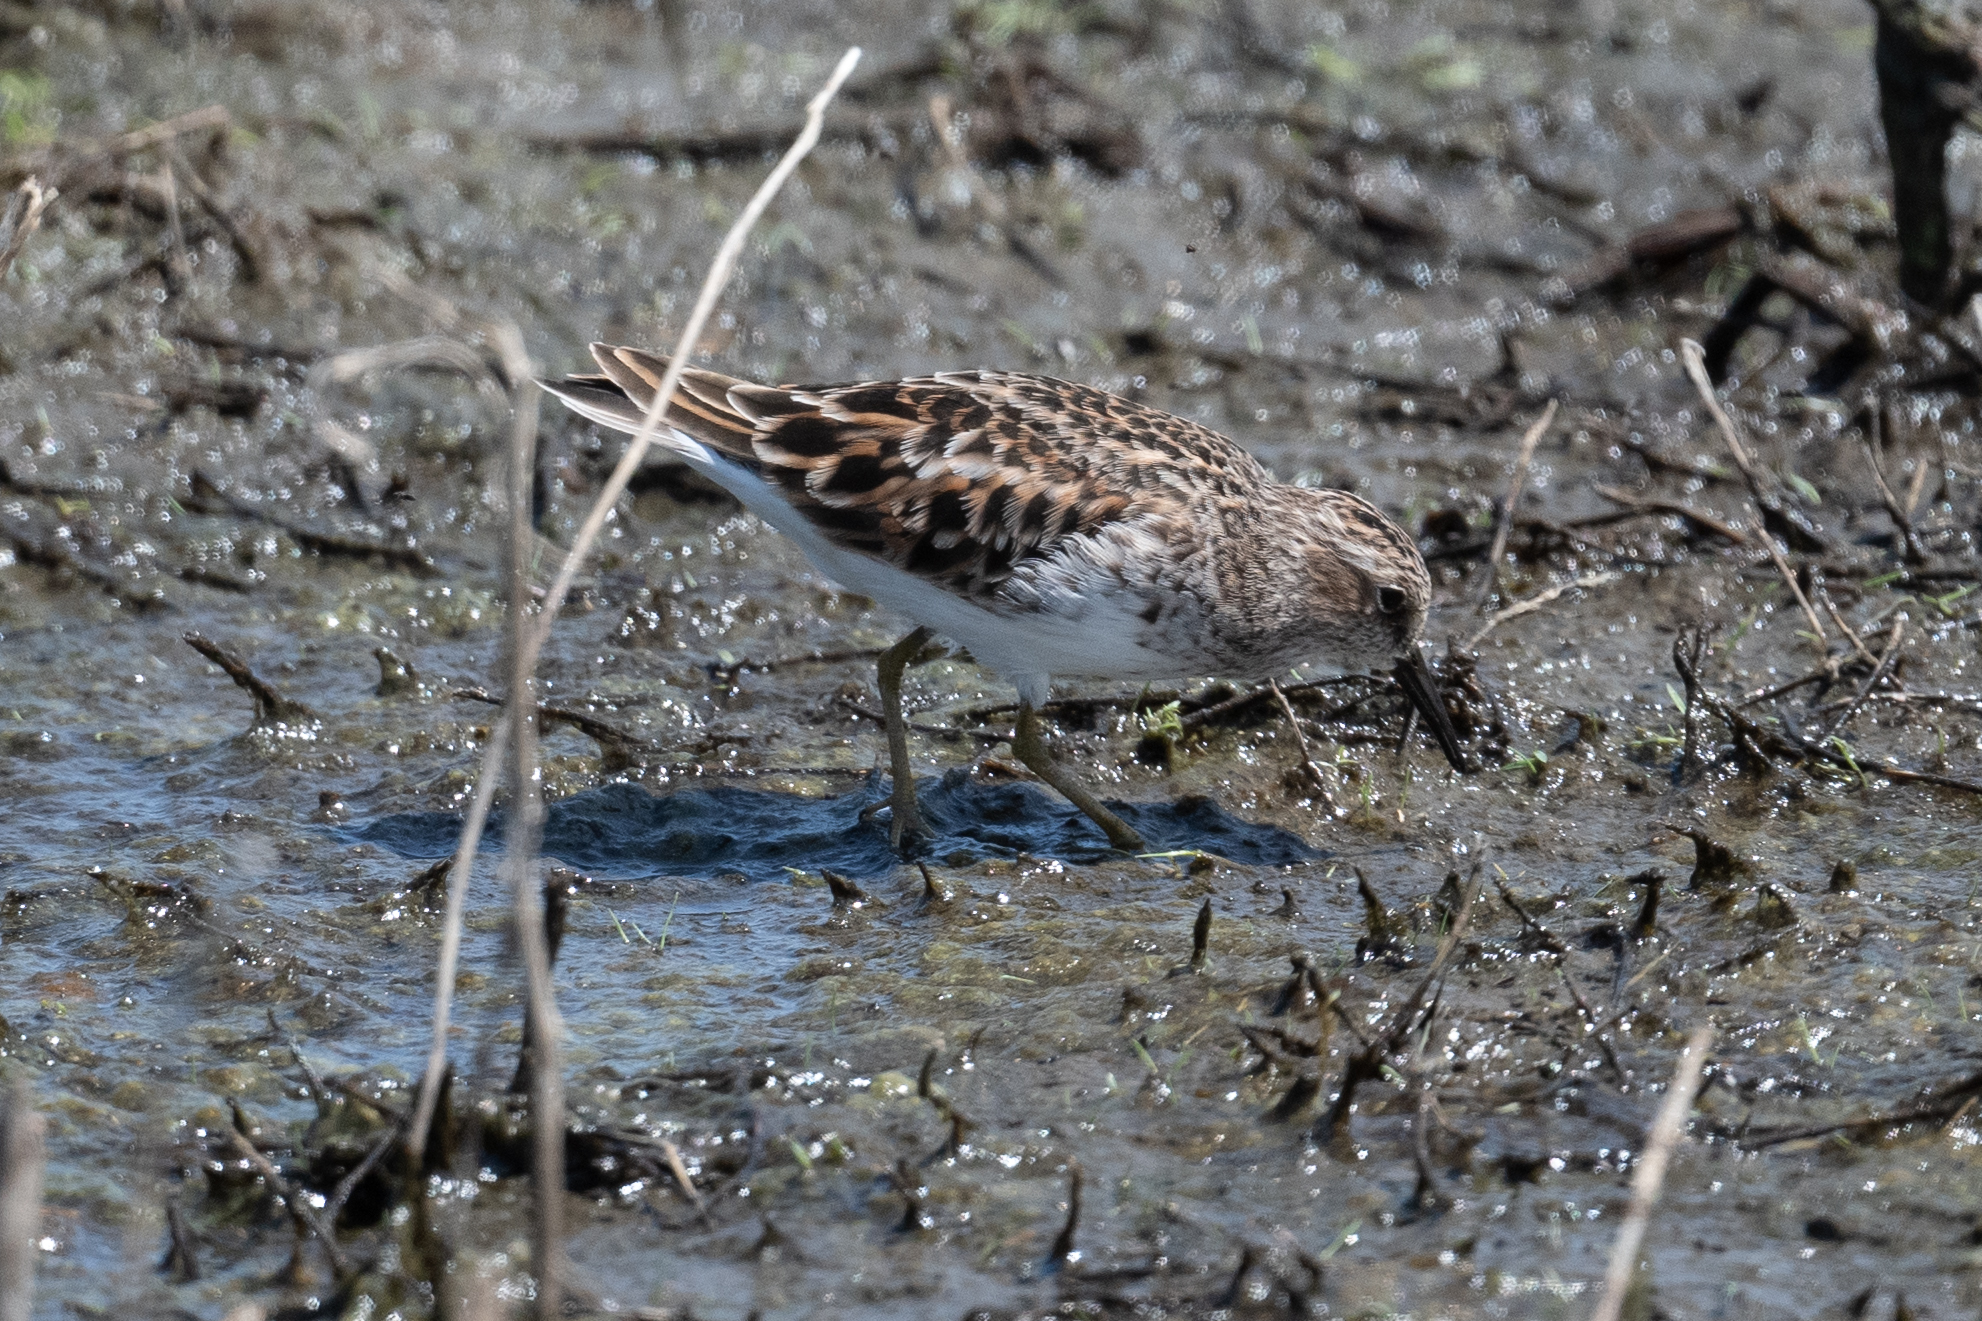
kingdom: Animalia
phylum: Chordata
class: Aves
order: Charadriiformes
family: Scolopacidae
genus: Calidris
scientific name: Calidris minutilla
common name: Least sandpiper
